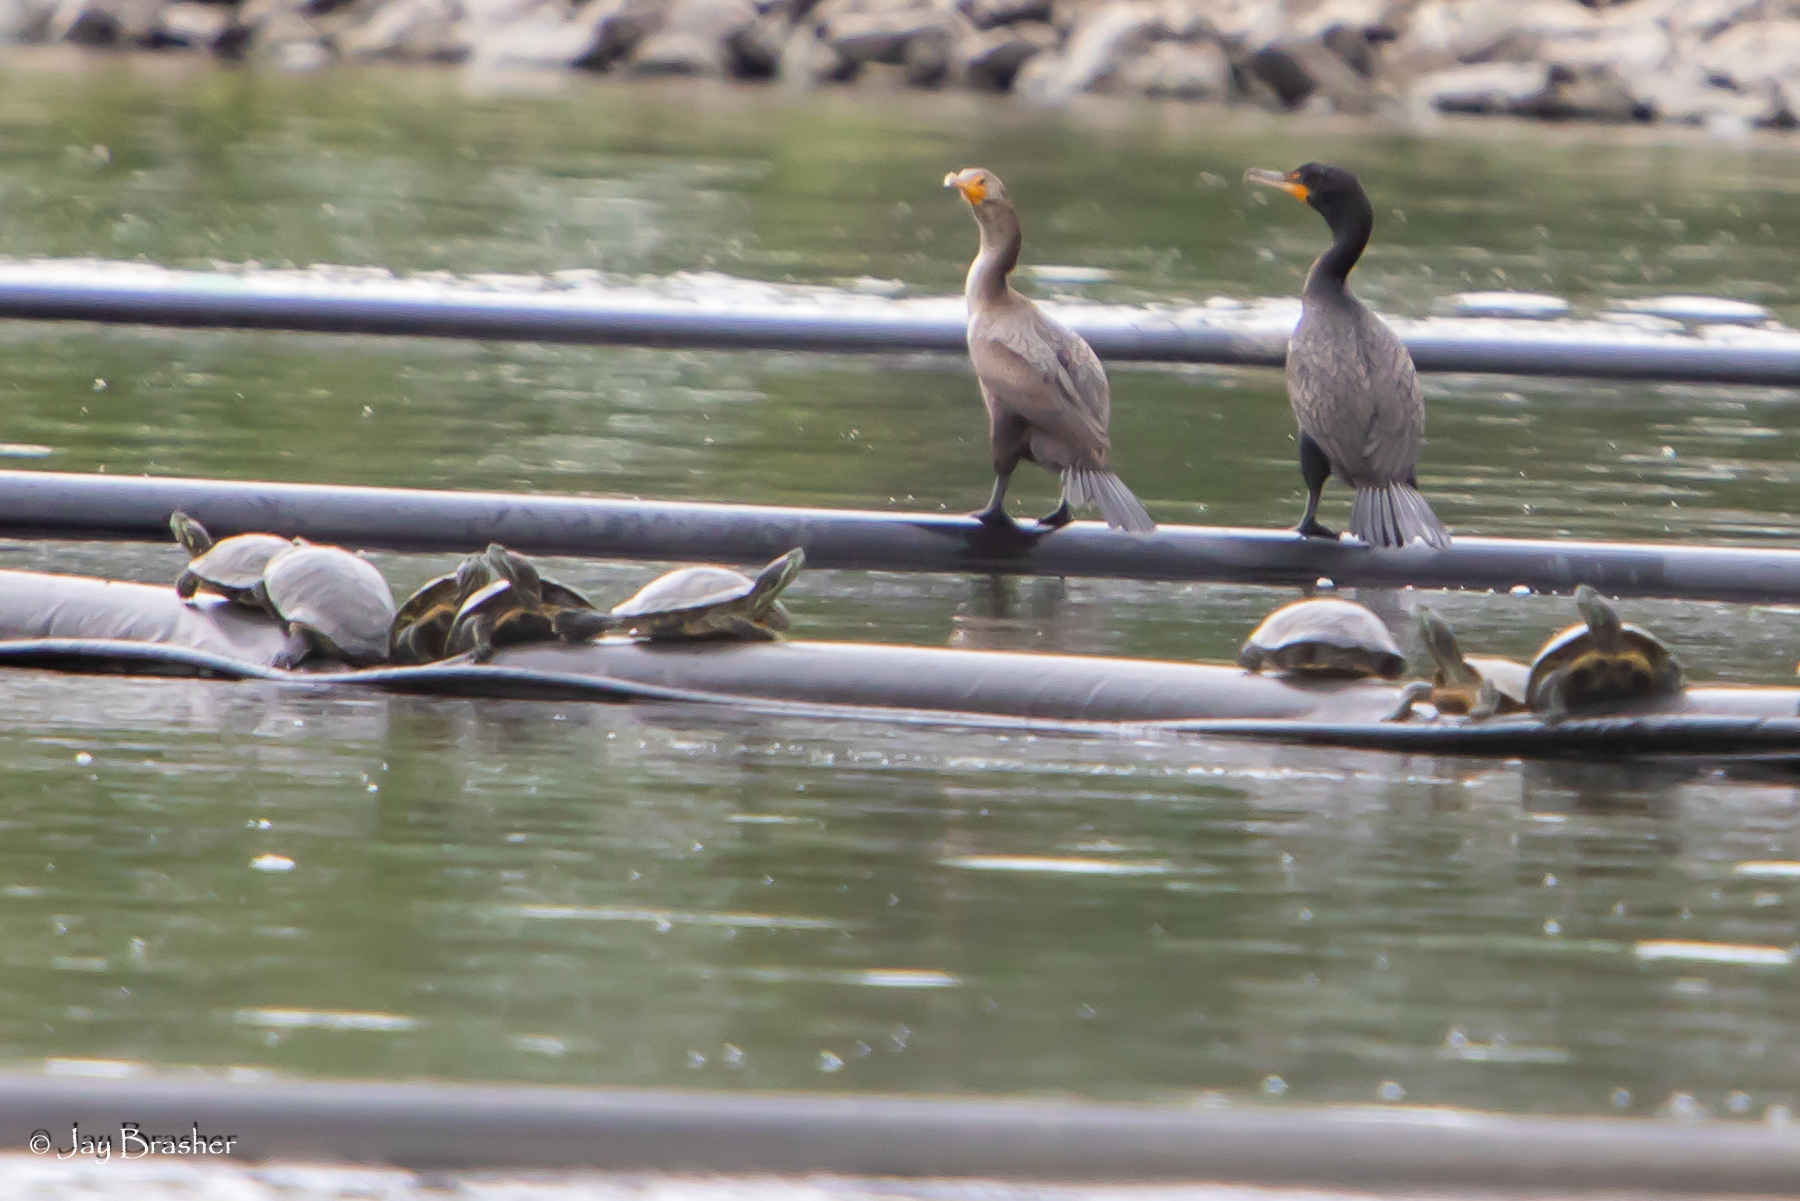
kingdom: Animalia
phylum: Chordata
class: Testudines
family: Emydidae
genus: Trachemys
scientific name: Trachemys scripta
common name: Slider
